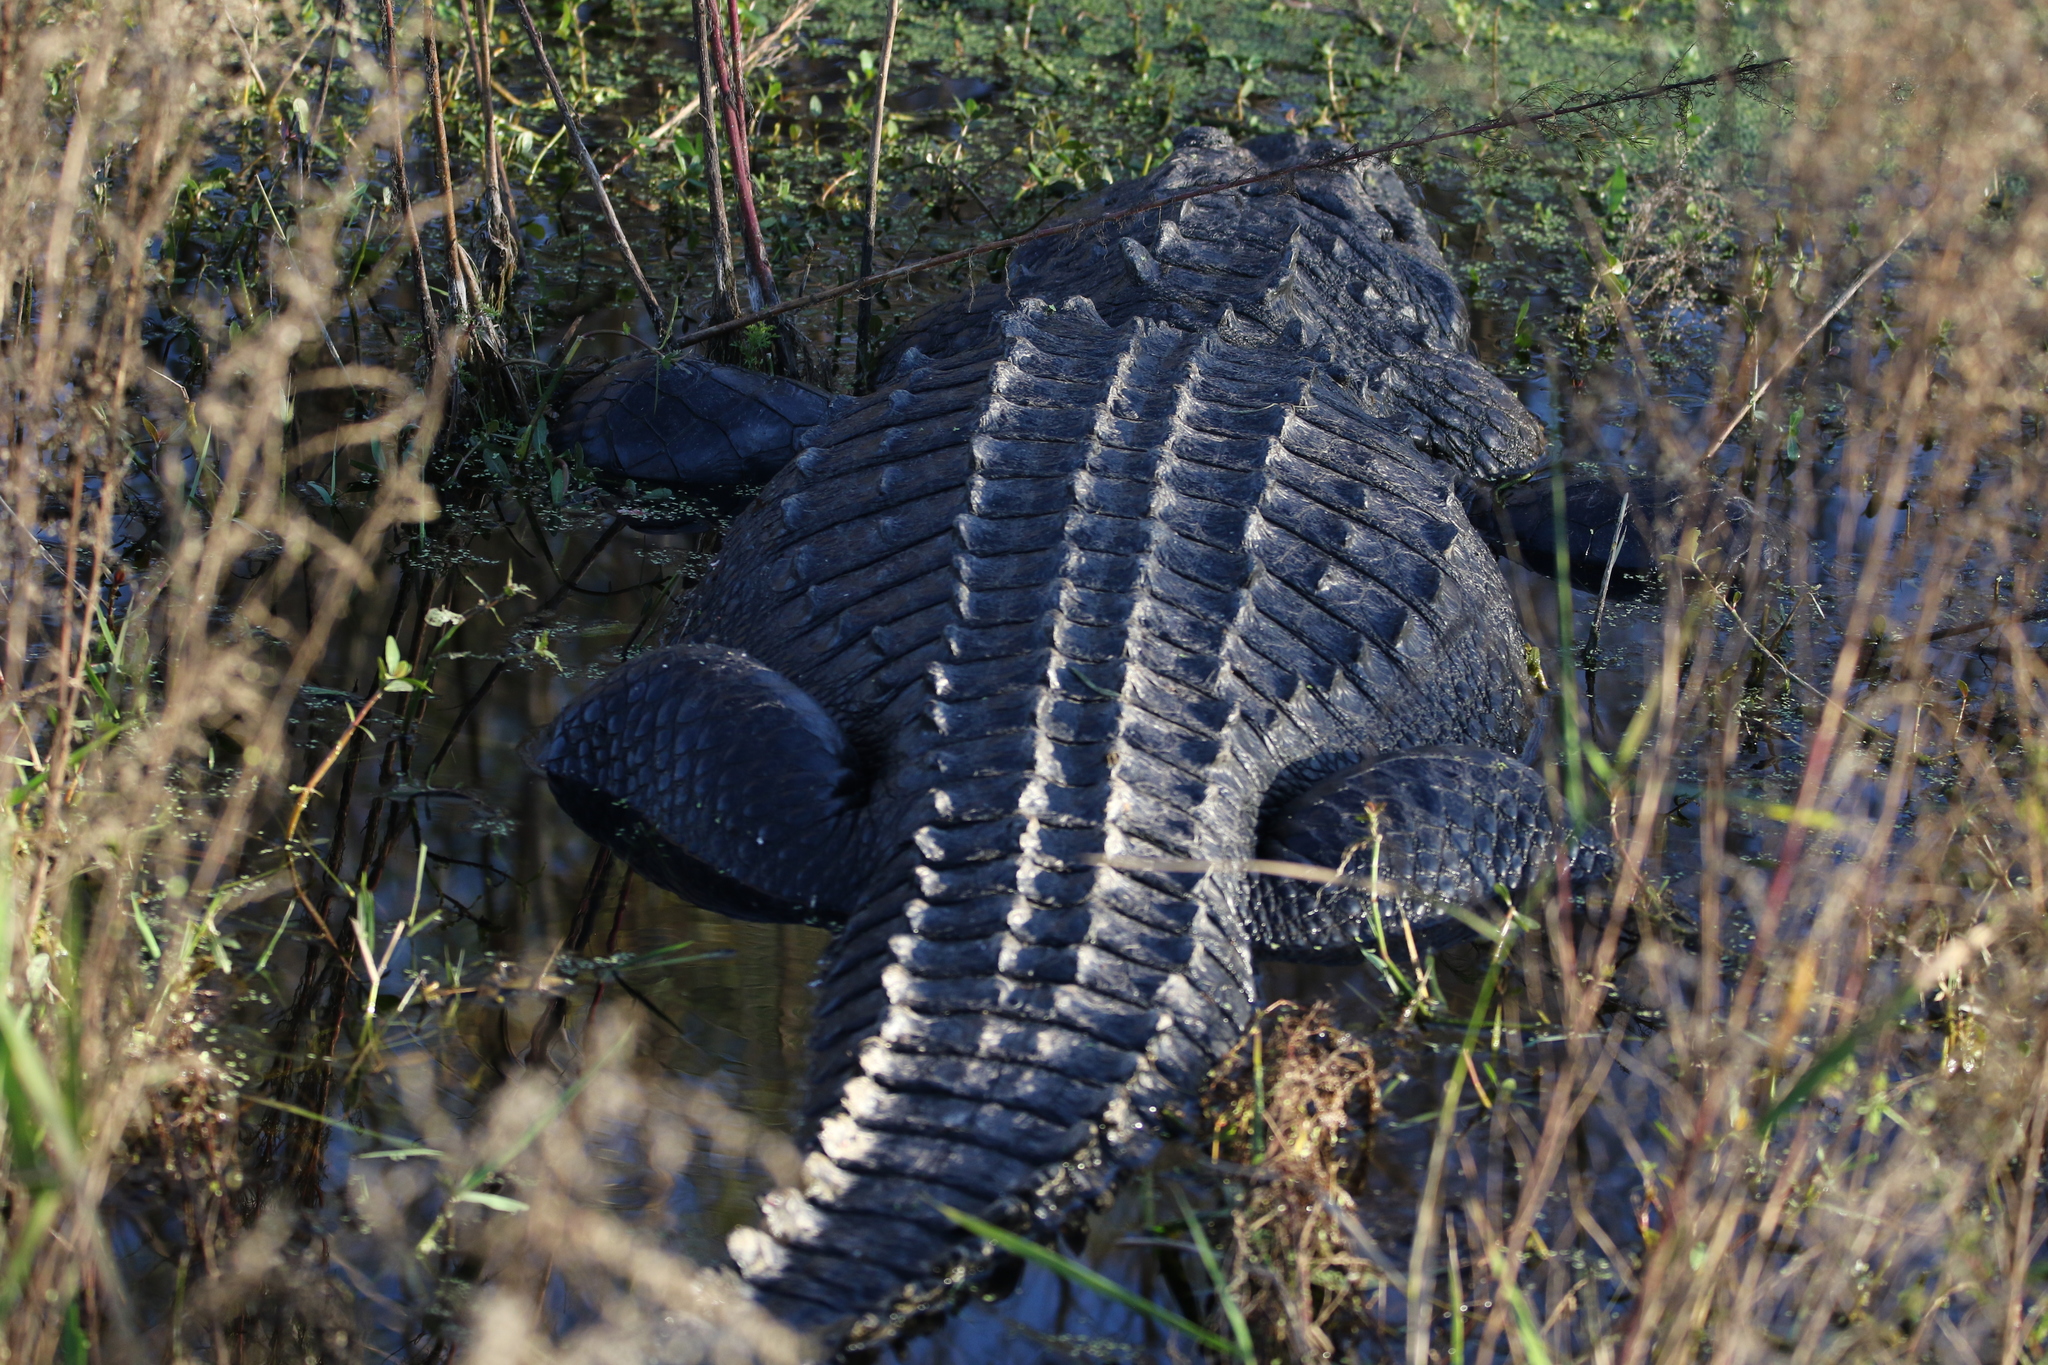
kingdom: Animalia
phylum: Chordata
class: Crocodylia
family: Alligatoridae
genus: Alligator
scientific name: Alligator mississippiensis
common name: American alligator
